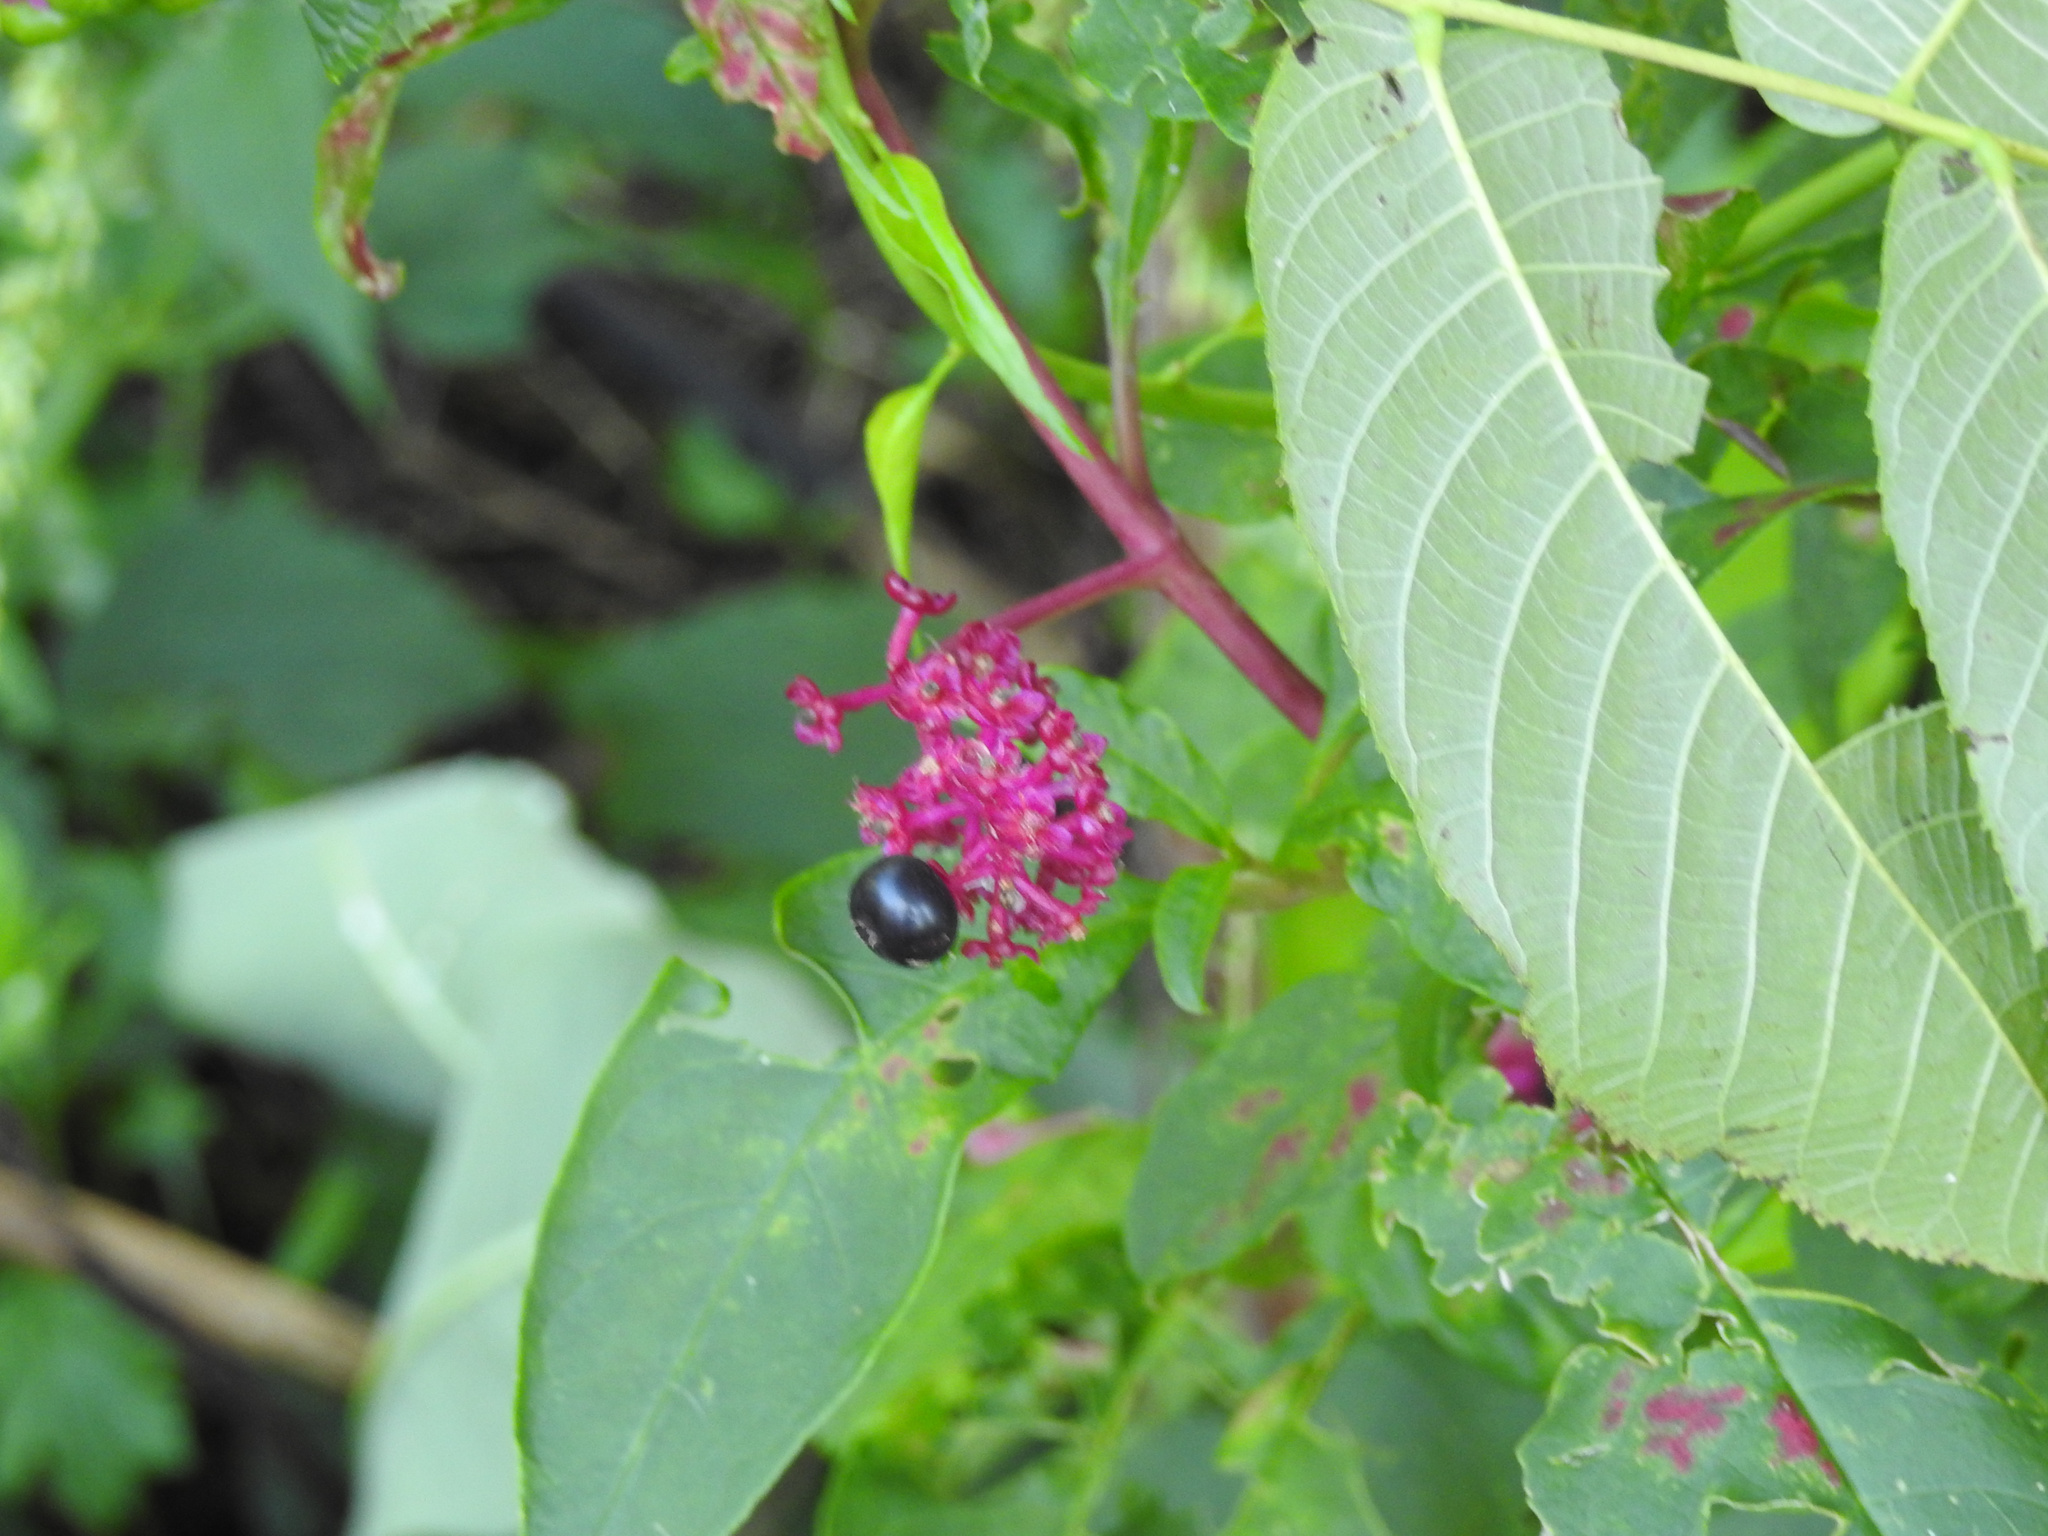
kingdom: Plantae
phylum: Tracheophyta
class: Magnoliopsida
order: Caryophyllales
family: Phytolaccaceae
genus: Phytolacca
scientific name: Phytolacca americana
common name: American pokeweed
